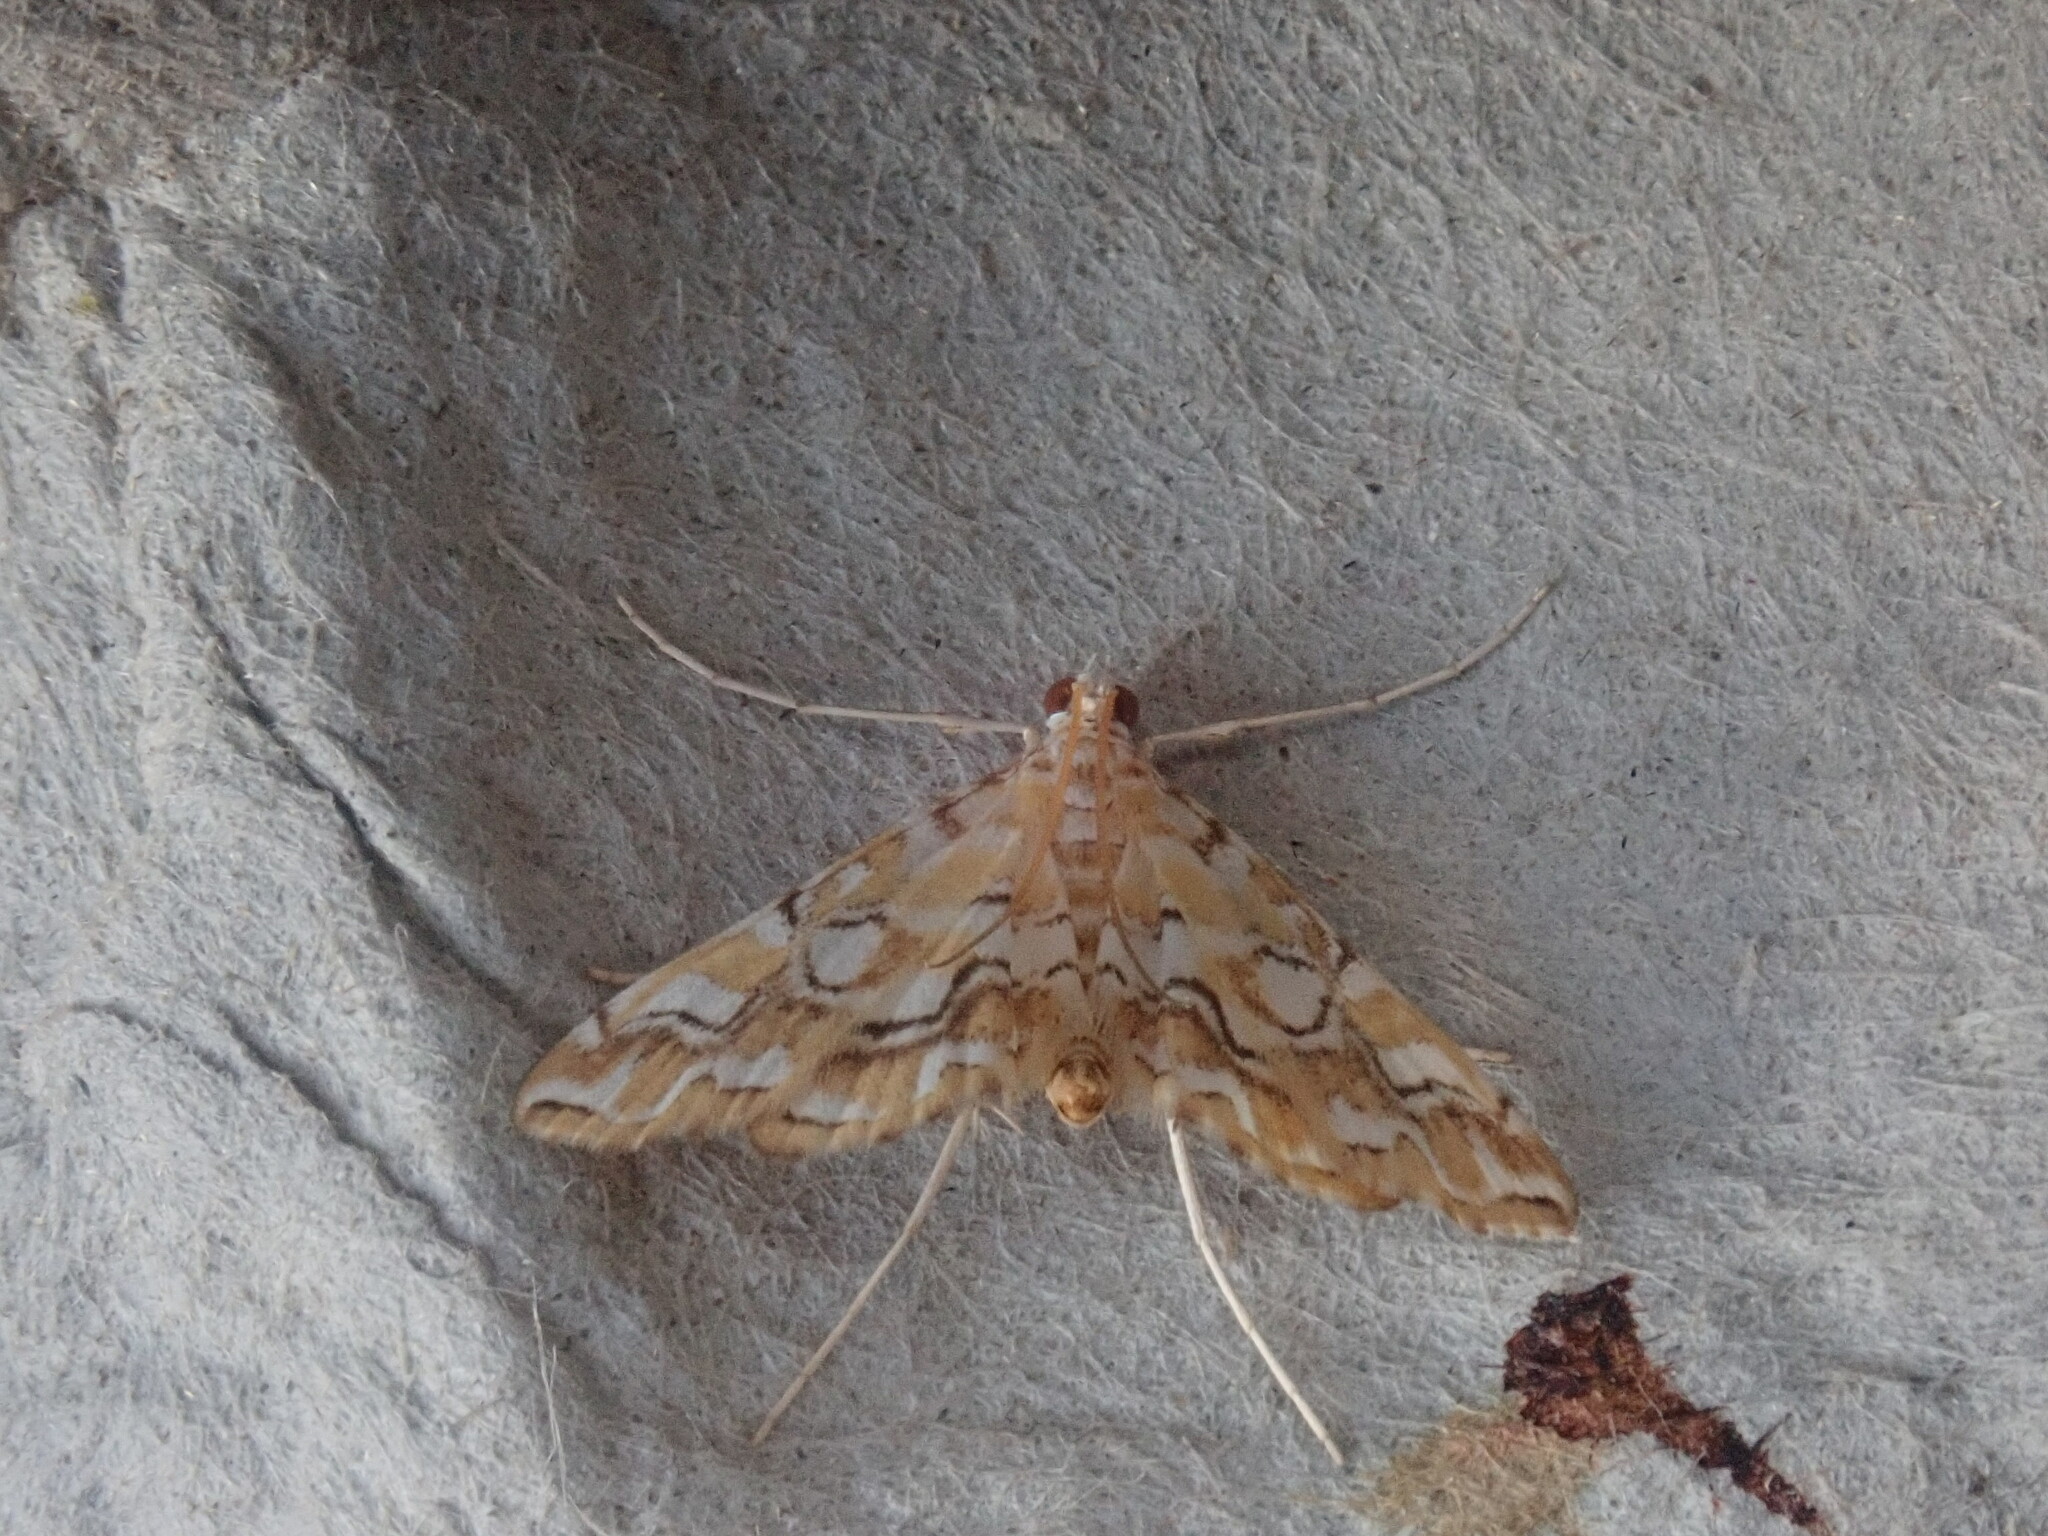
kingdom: Animalia
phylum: Arthropoda
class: Insecta
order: Lepidoptera
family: Crambidae
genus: Elophila
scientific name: Elophila icciusalis
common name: Pondside pyralid moth
